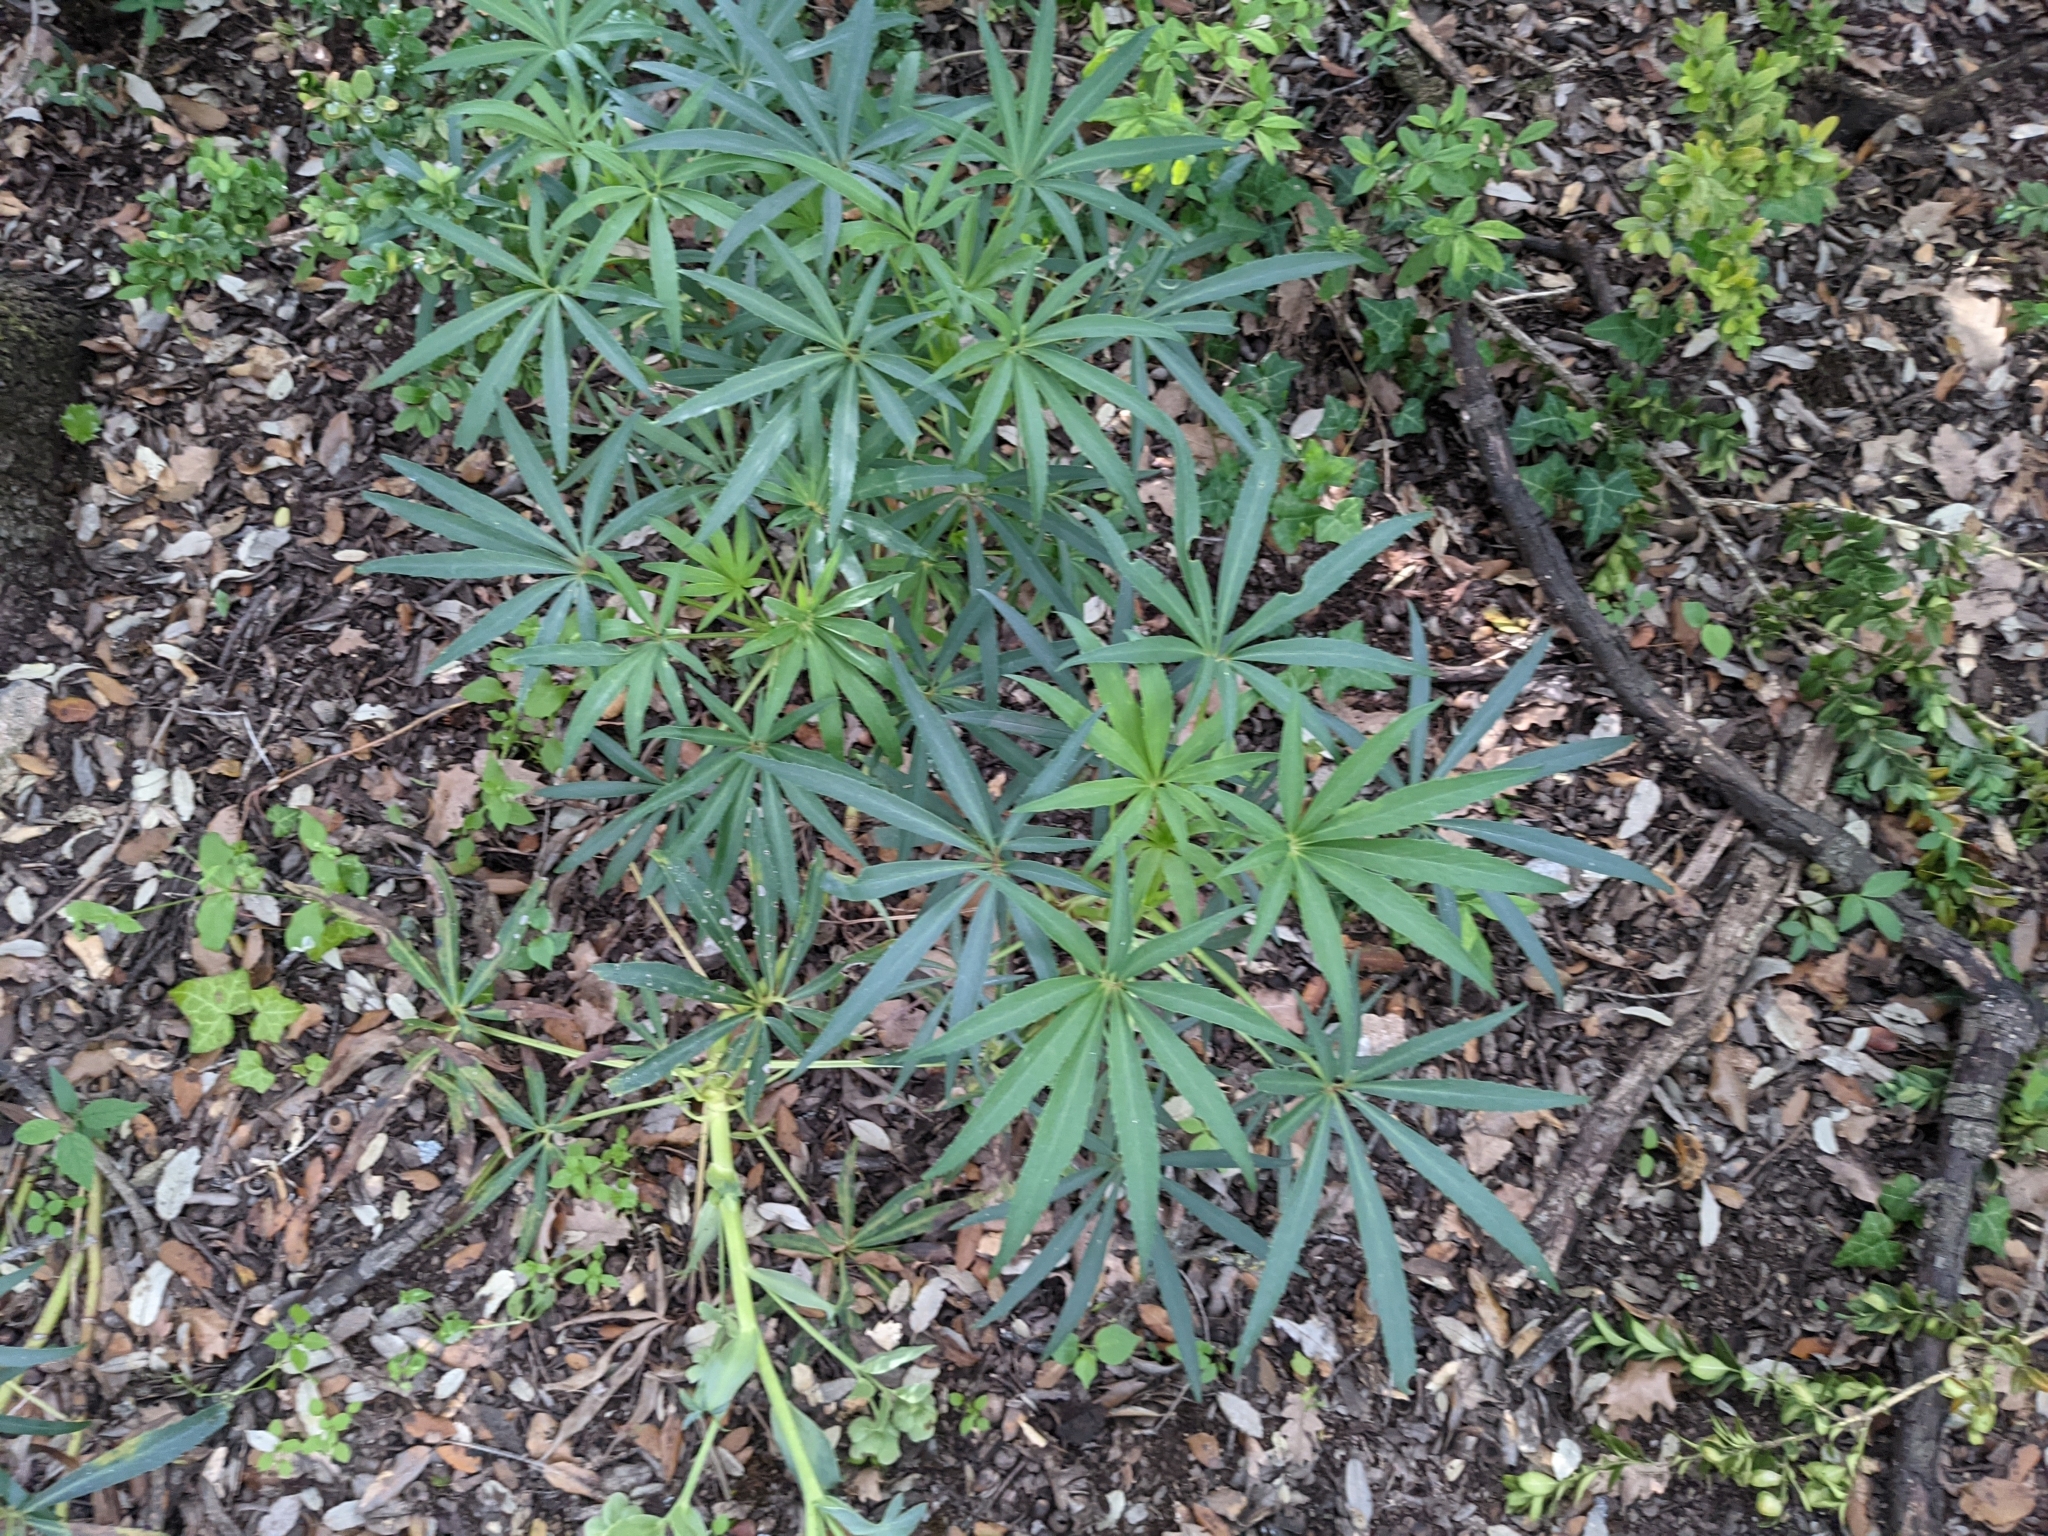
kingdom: Plantae
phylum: Tracheophyta
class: Magnoliopsida
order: Ranunculales
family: Ranunculaceae
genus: Helleborus
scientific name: Helleborus foetidus
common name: Stinking hellebore
